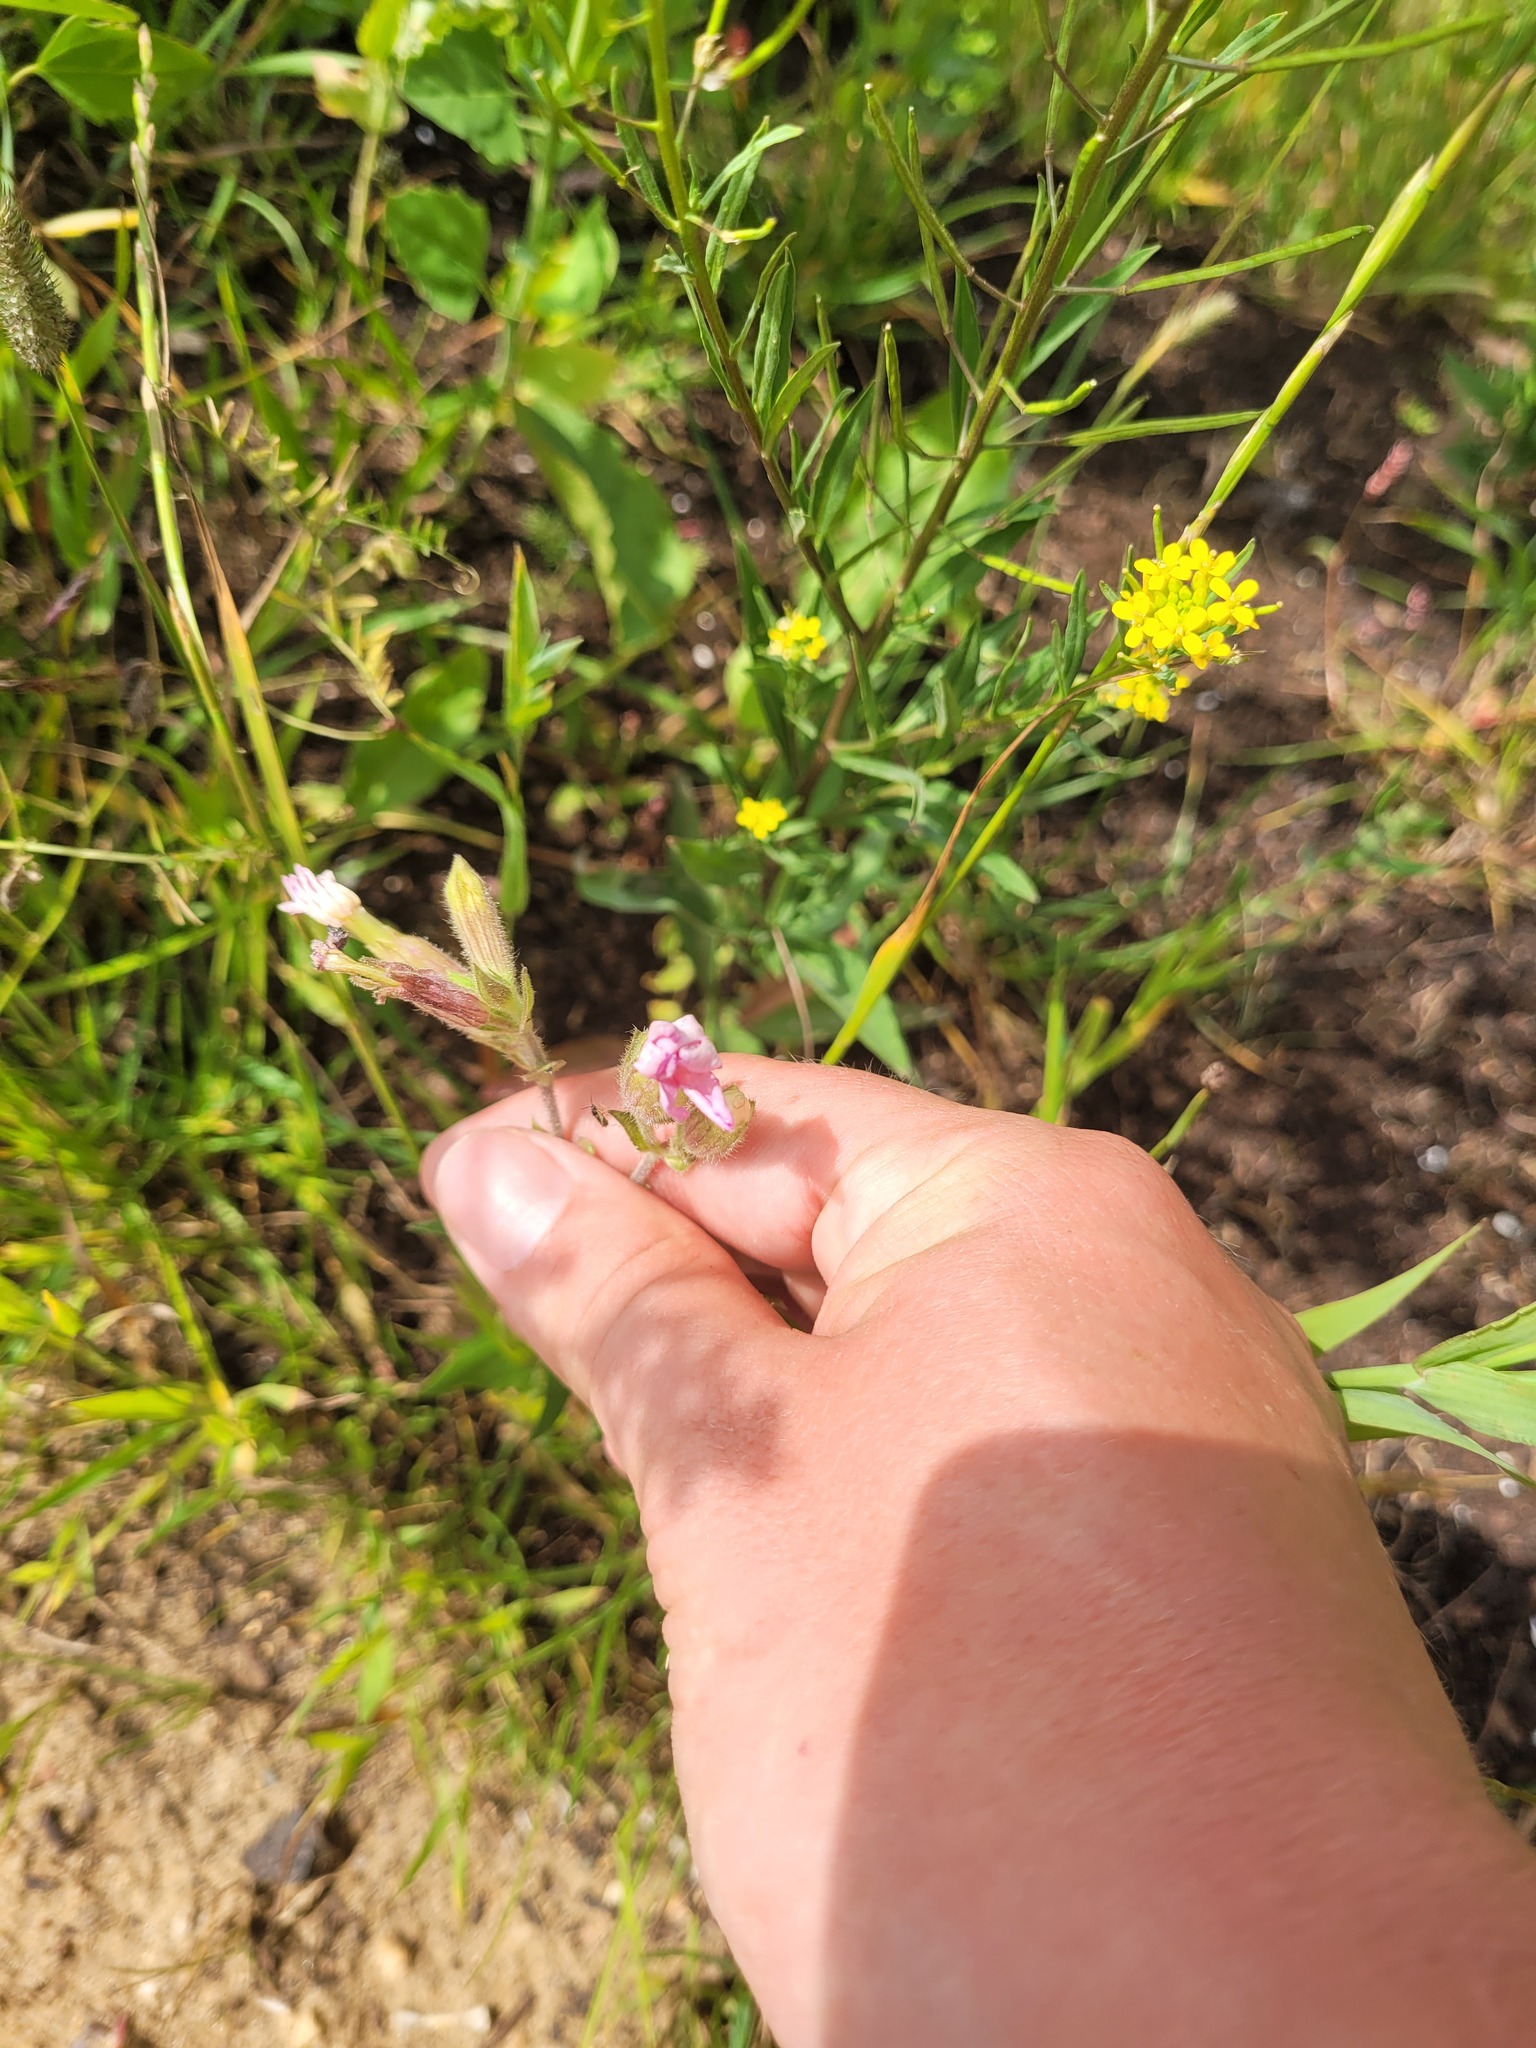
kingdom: Plantae
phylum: Tracheophyta
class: Magnoliopsida
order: Caryophyllales
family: Caryophyllaceae
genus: Silene
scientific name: Silene hampeana
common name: Catchfly
